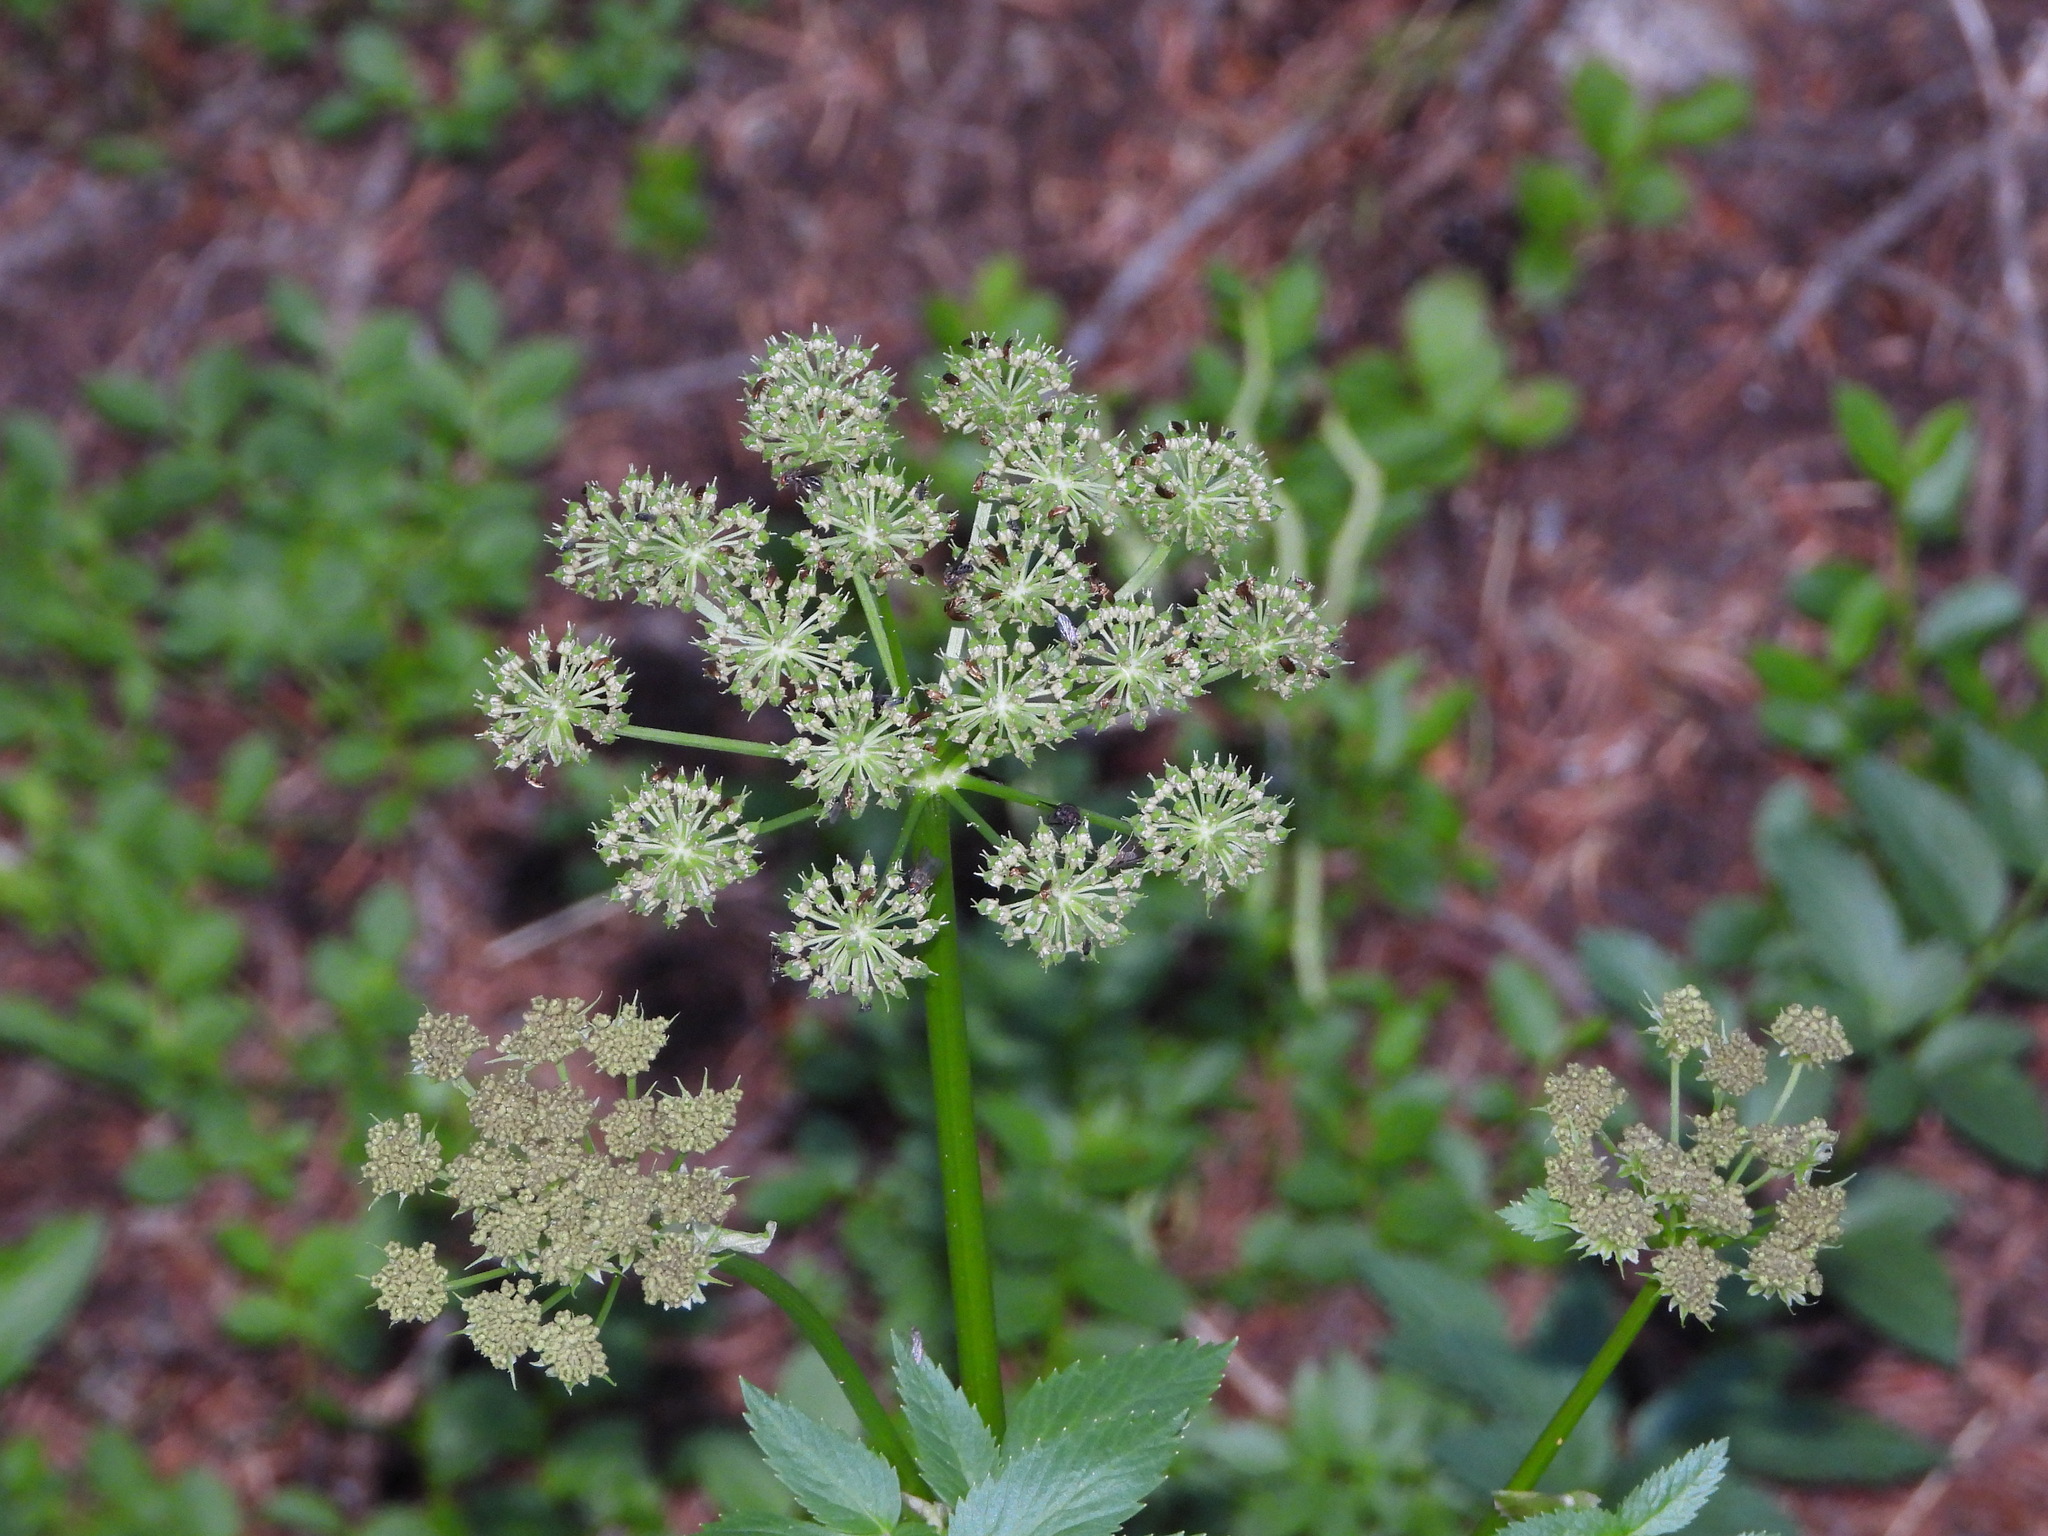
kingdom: Plantae
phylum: Tracheophyta
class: Magnoliopsida
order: Apiales
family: Apiaceae
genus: Angelica
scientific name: Angelica grayi
